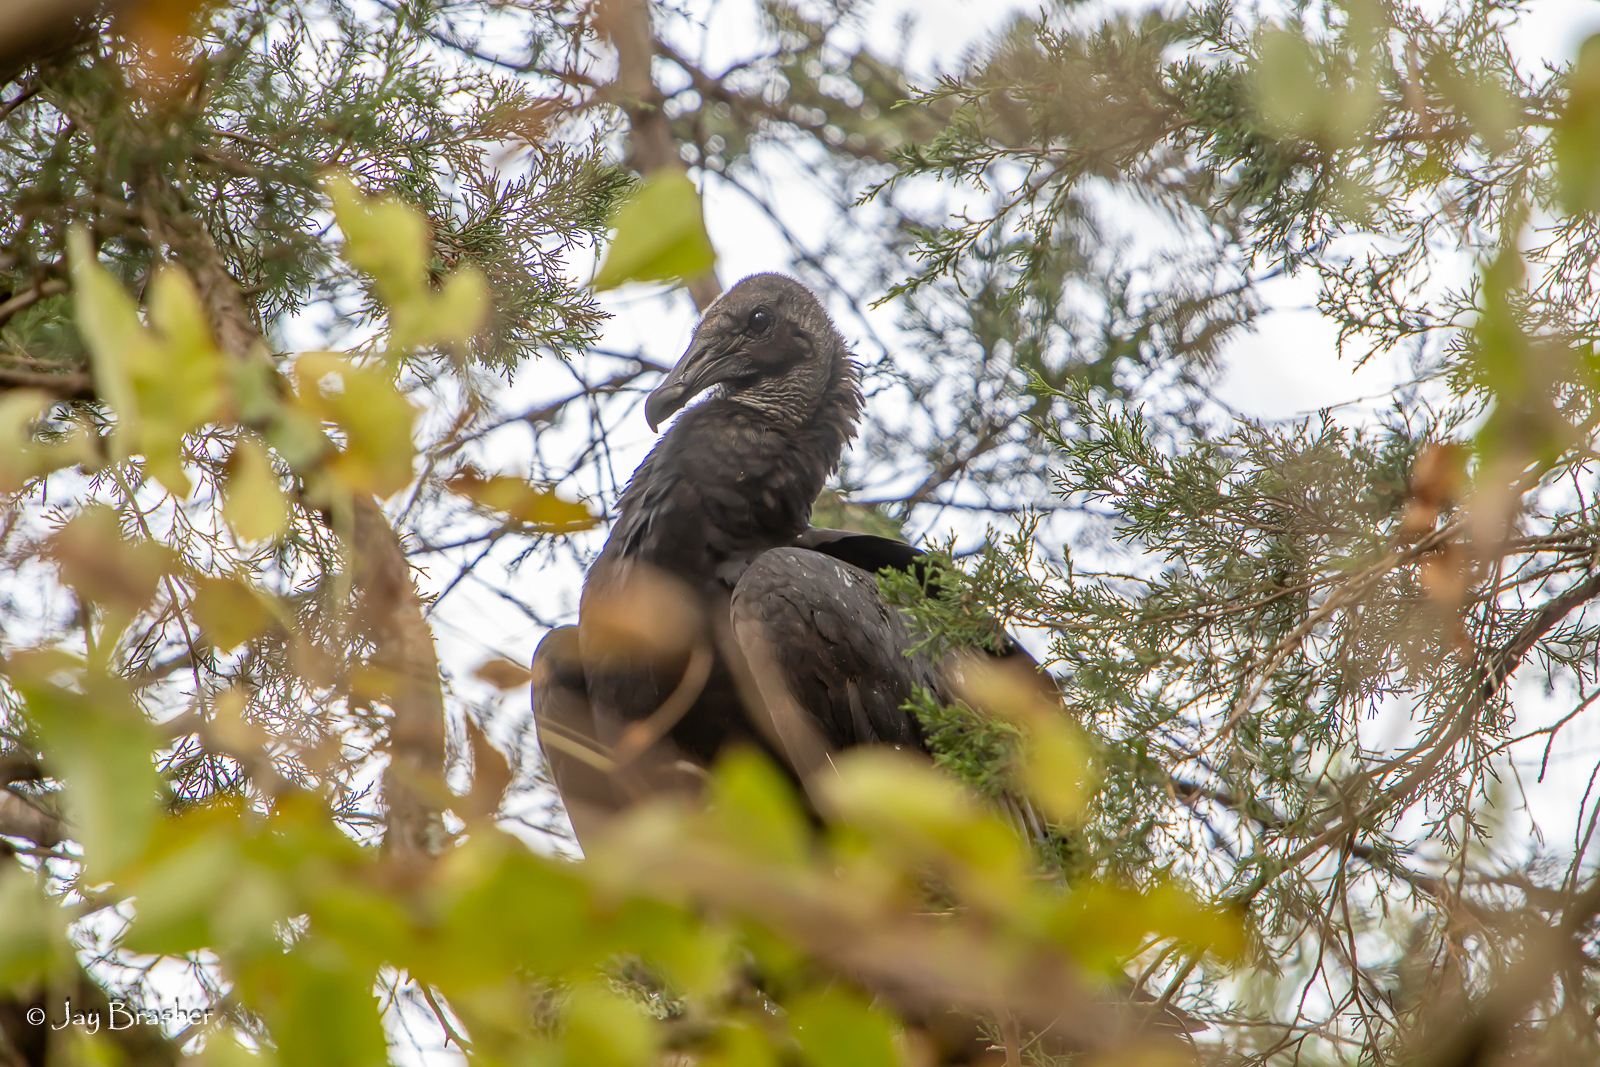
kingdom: Animalia
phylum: Chordata
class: Aves
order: Accipitriformes
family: Cathartidae
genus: Coragyps
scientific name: Coragyps atratus
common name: Black vulture
